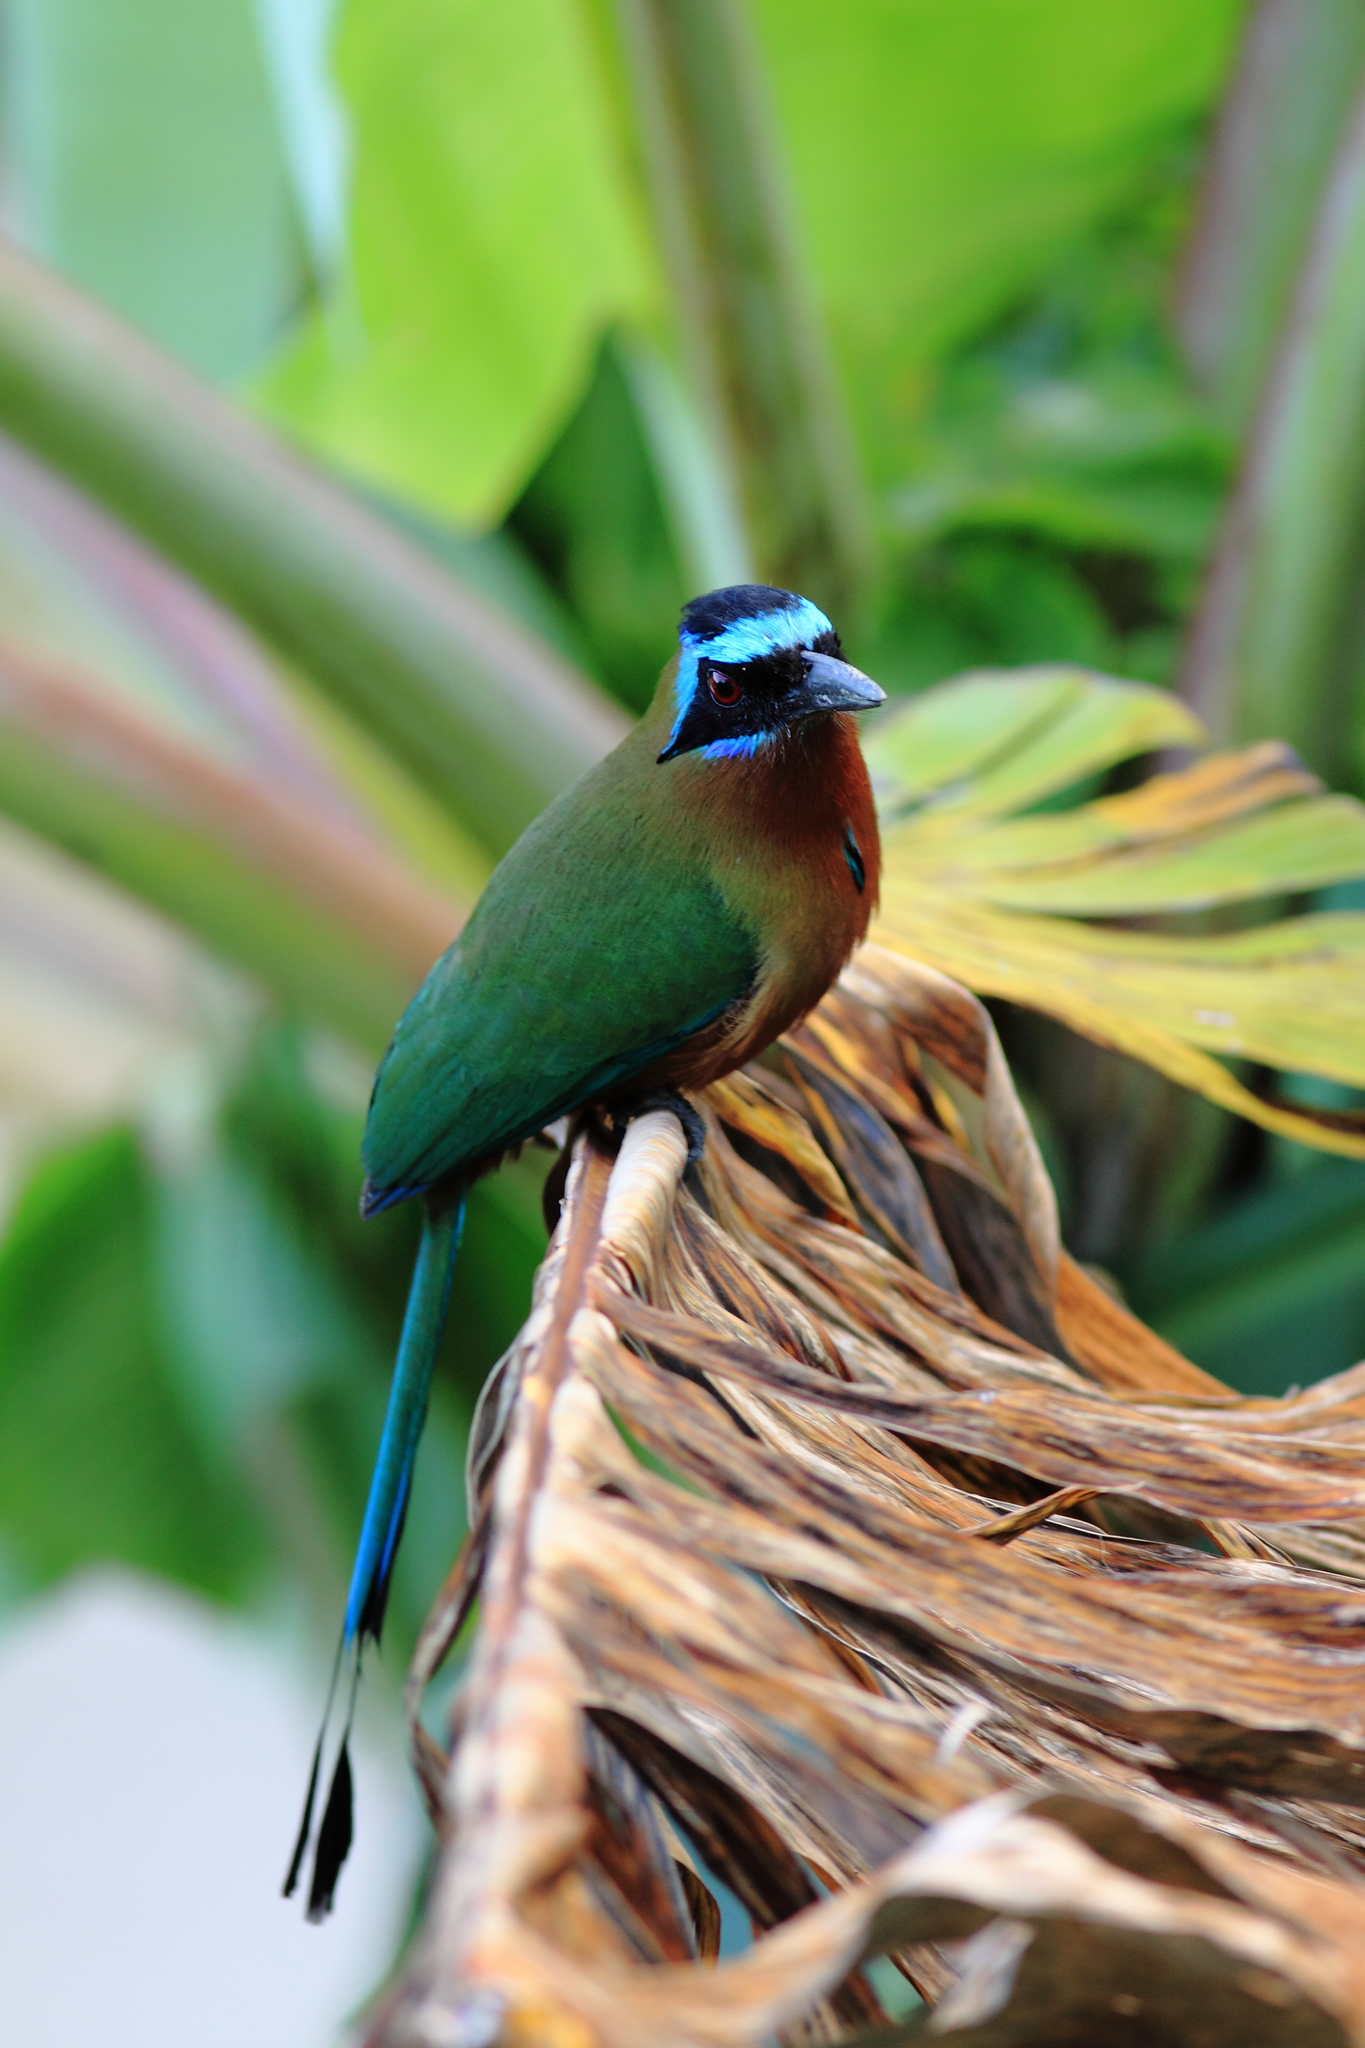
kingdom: Animalia
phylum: Chordata
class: Aves
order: Coraciiformes
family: Momotidae
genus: Momotus
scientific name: Momotus bahamensis
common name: Trinidad motmot
